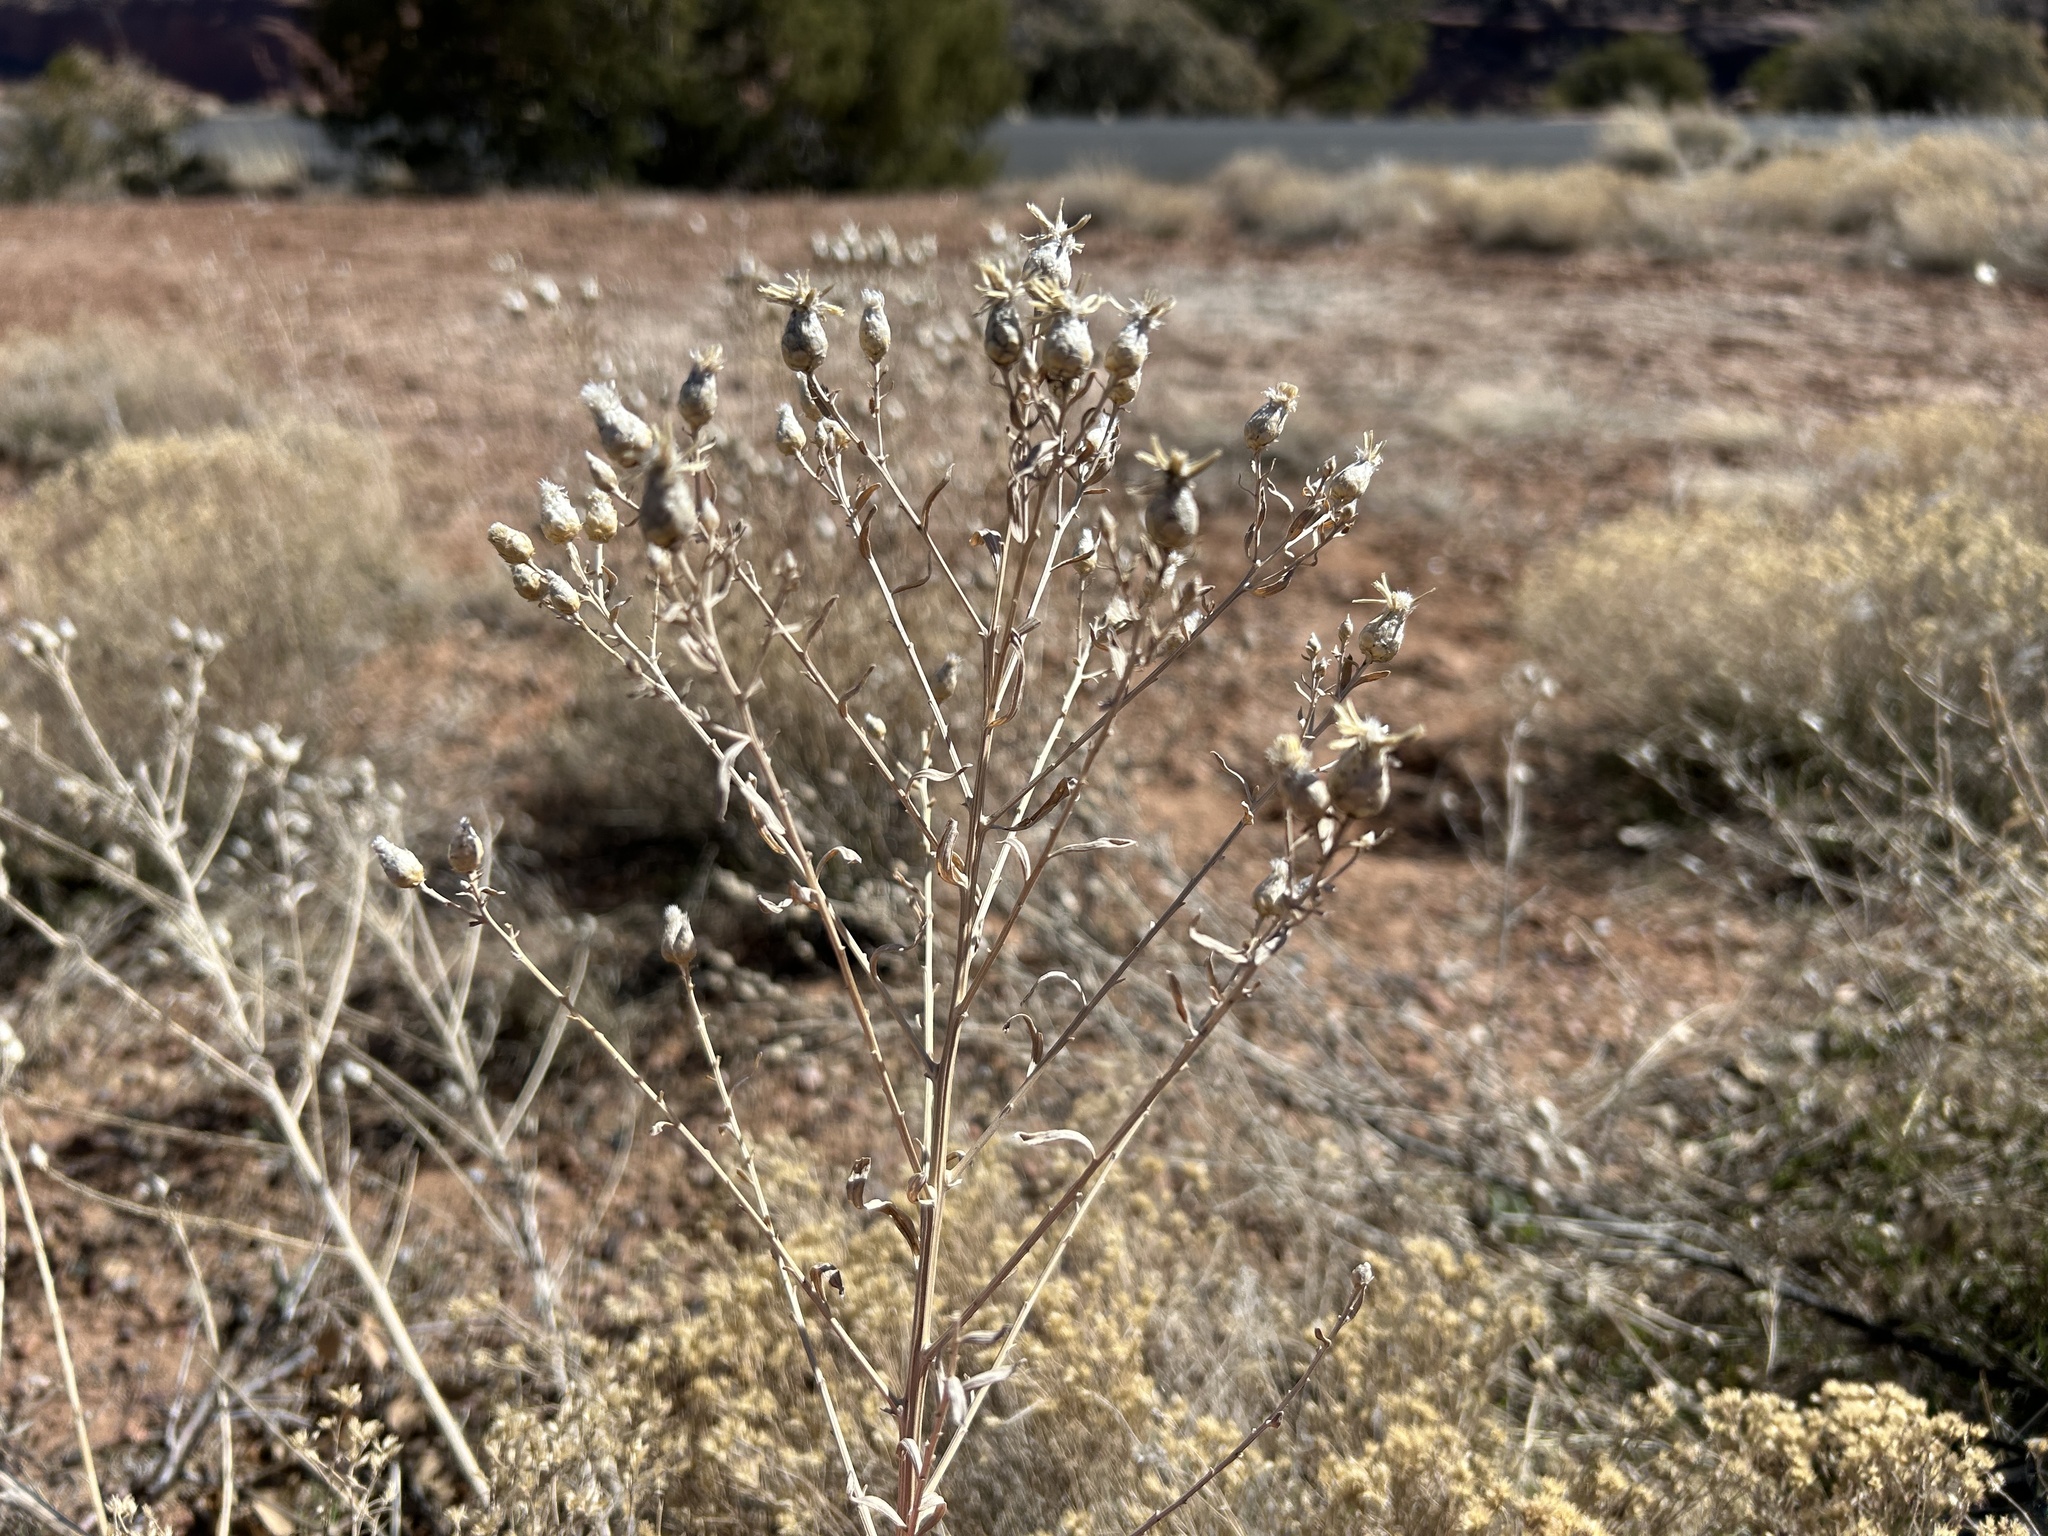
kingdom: Plantae
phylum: Tracheophyta
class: Magnoliopsida
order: Asterales
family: Asteraceae
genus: Leuzea
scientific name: Leuzea repens
